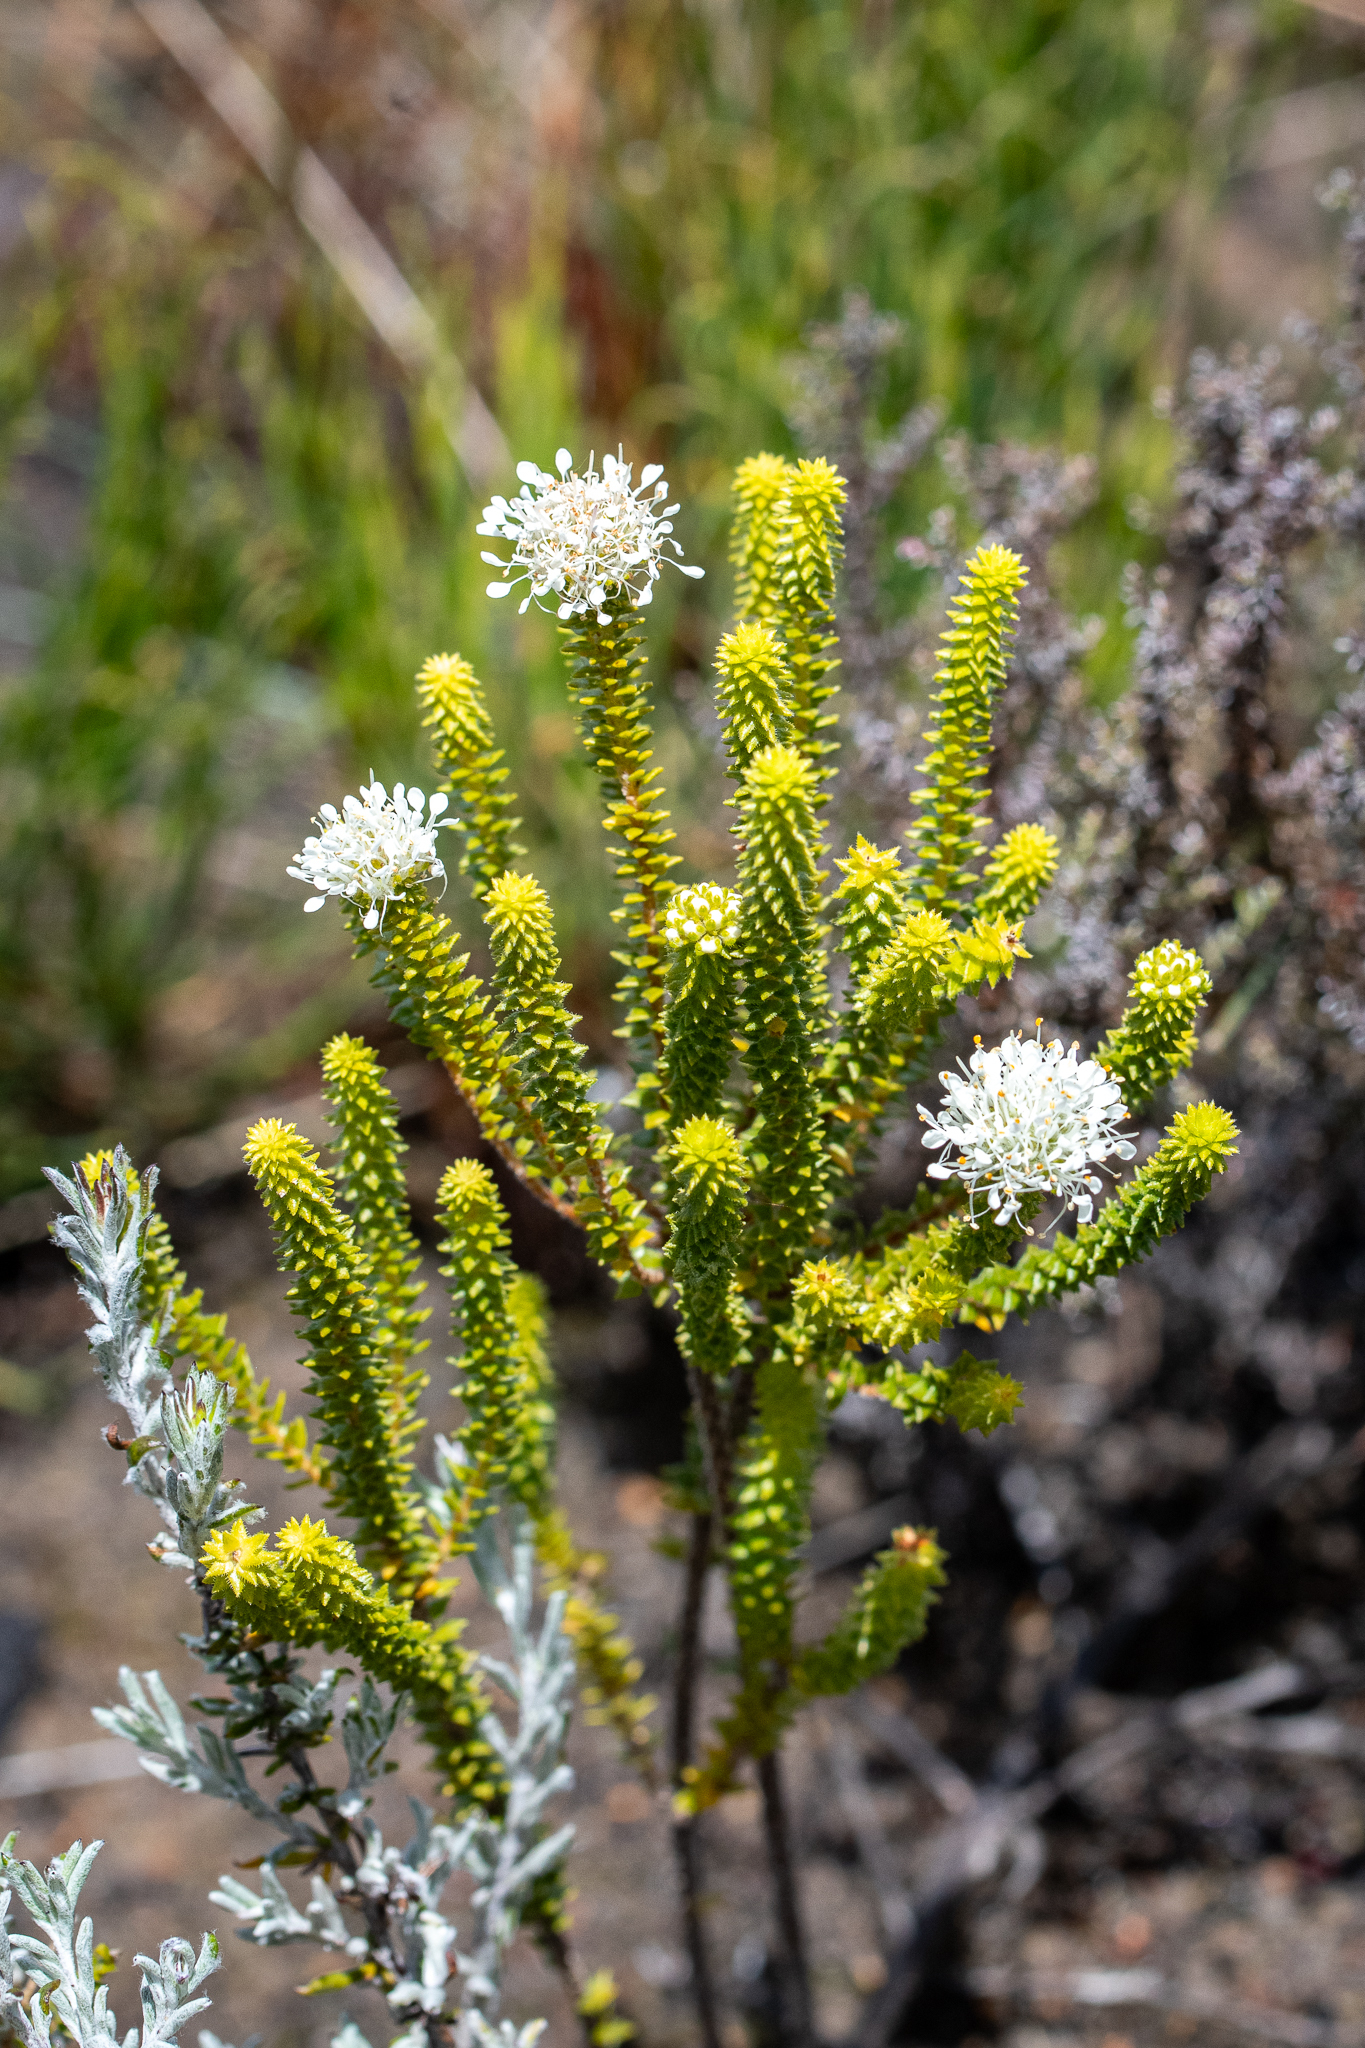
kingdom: Plantae
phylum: Tracheophyta
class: Magnoliopsida
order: Sapindales
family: Rutaceae
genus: Agathosma
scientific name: Agathosma imbricata
